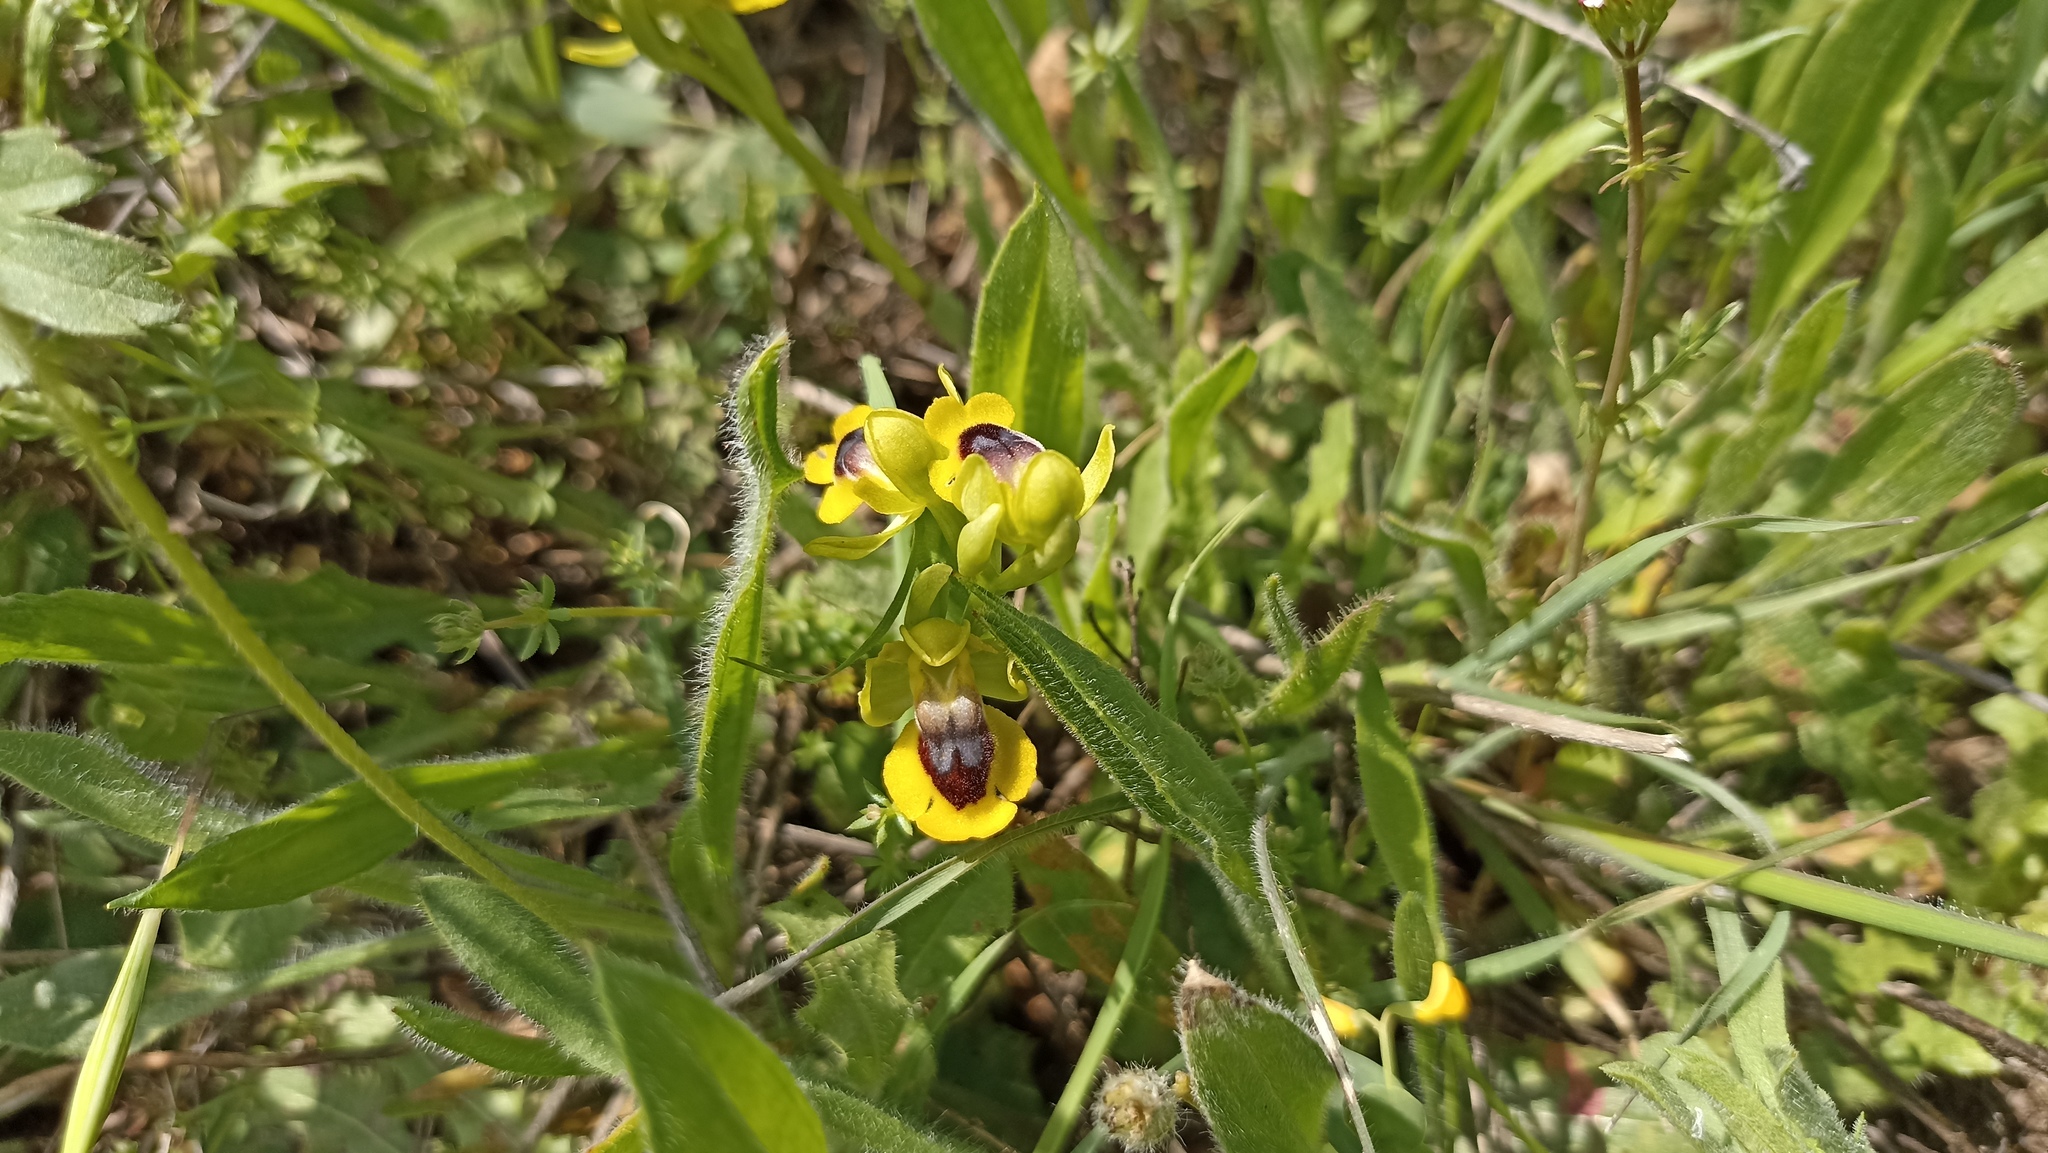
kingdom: Plantae
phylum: Tracheophyta
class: Liliopsida
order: Asparagales
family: Orchidaceae
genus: Ophrys
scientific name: Ophrys lutea
